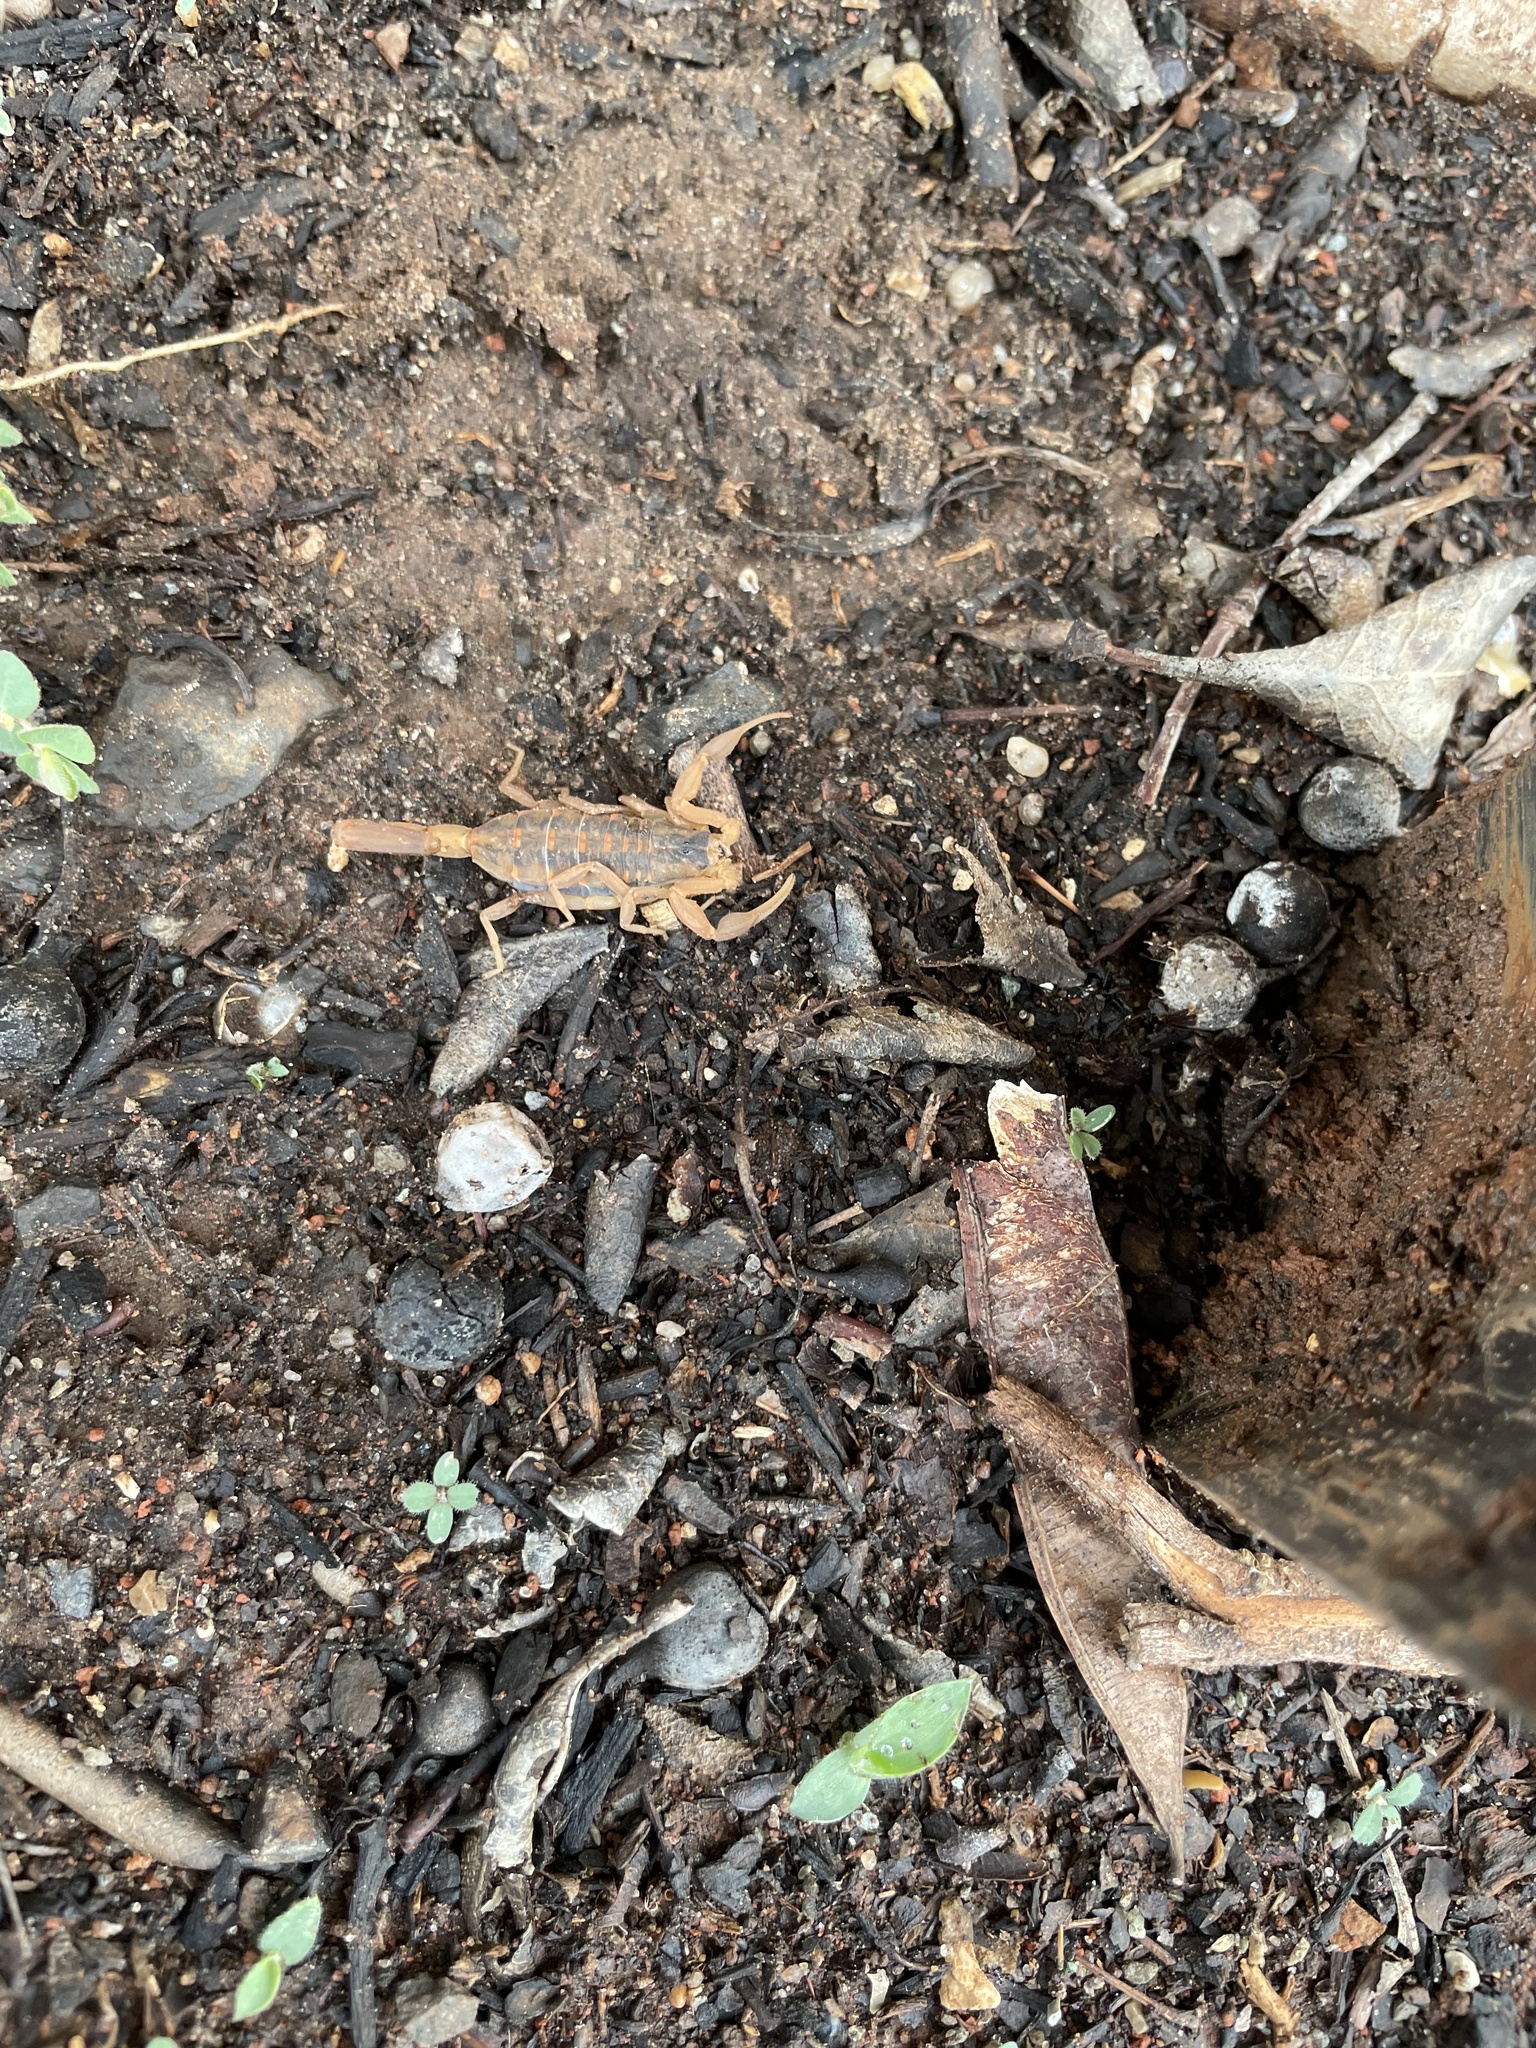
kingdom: Animalia
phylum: Arthropoda
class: Arachnida
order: Scorpiones
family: Buthidae
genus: Centruroides
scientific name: Centruroides vittatus
